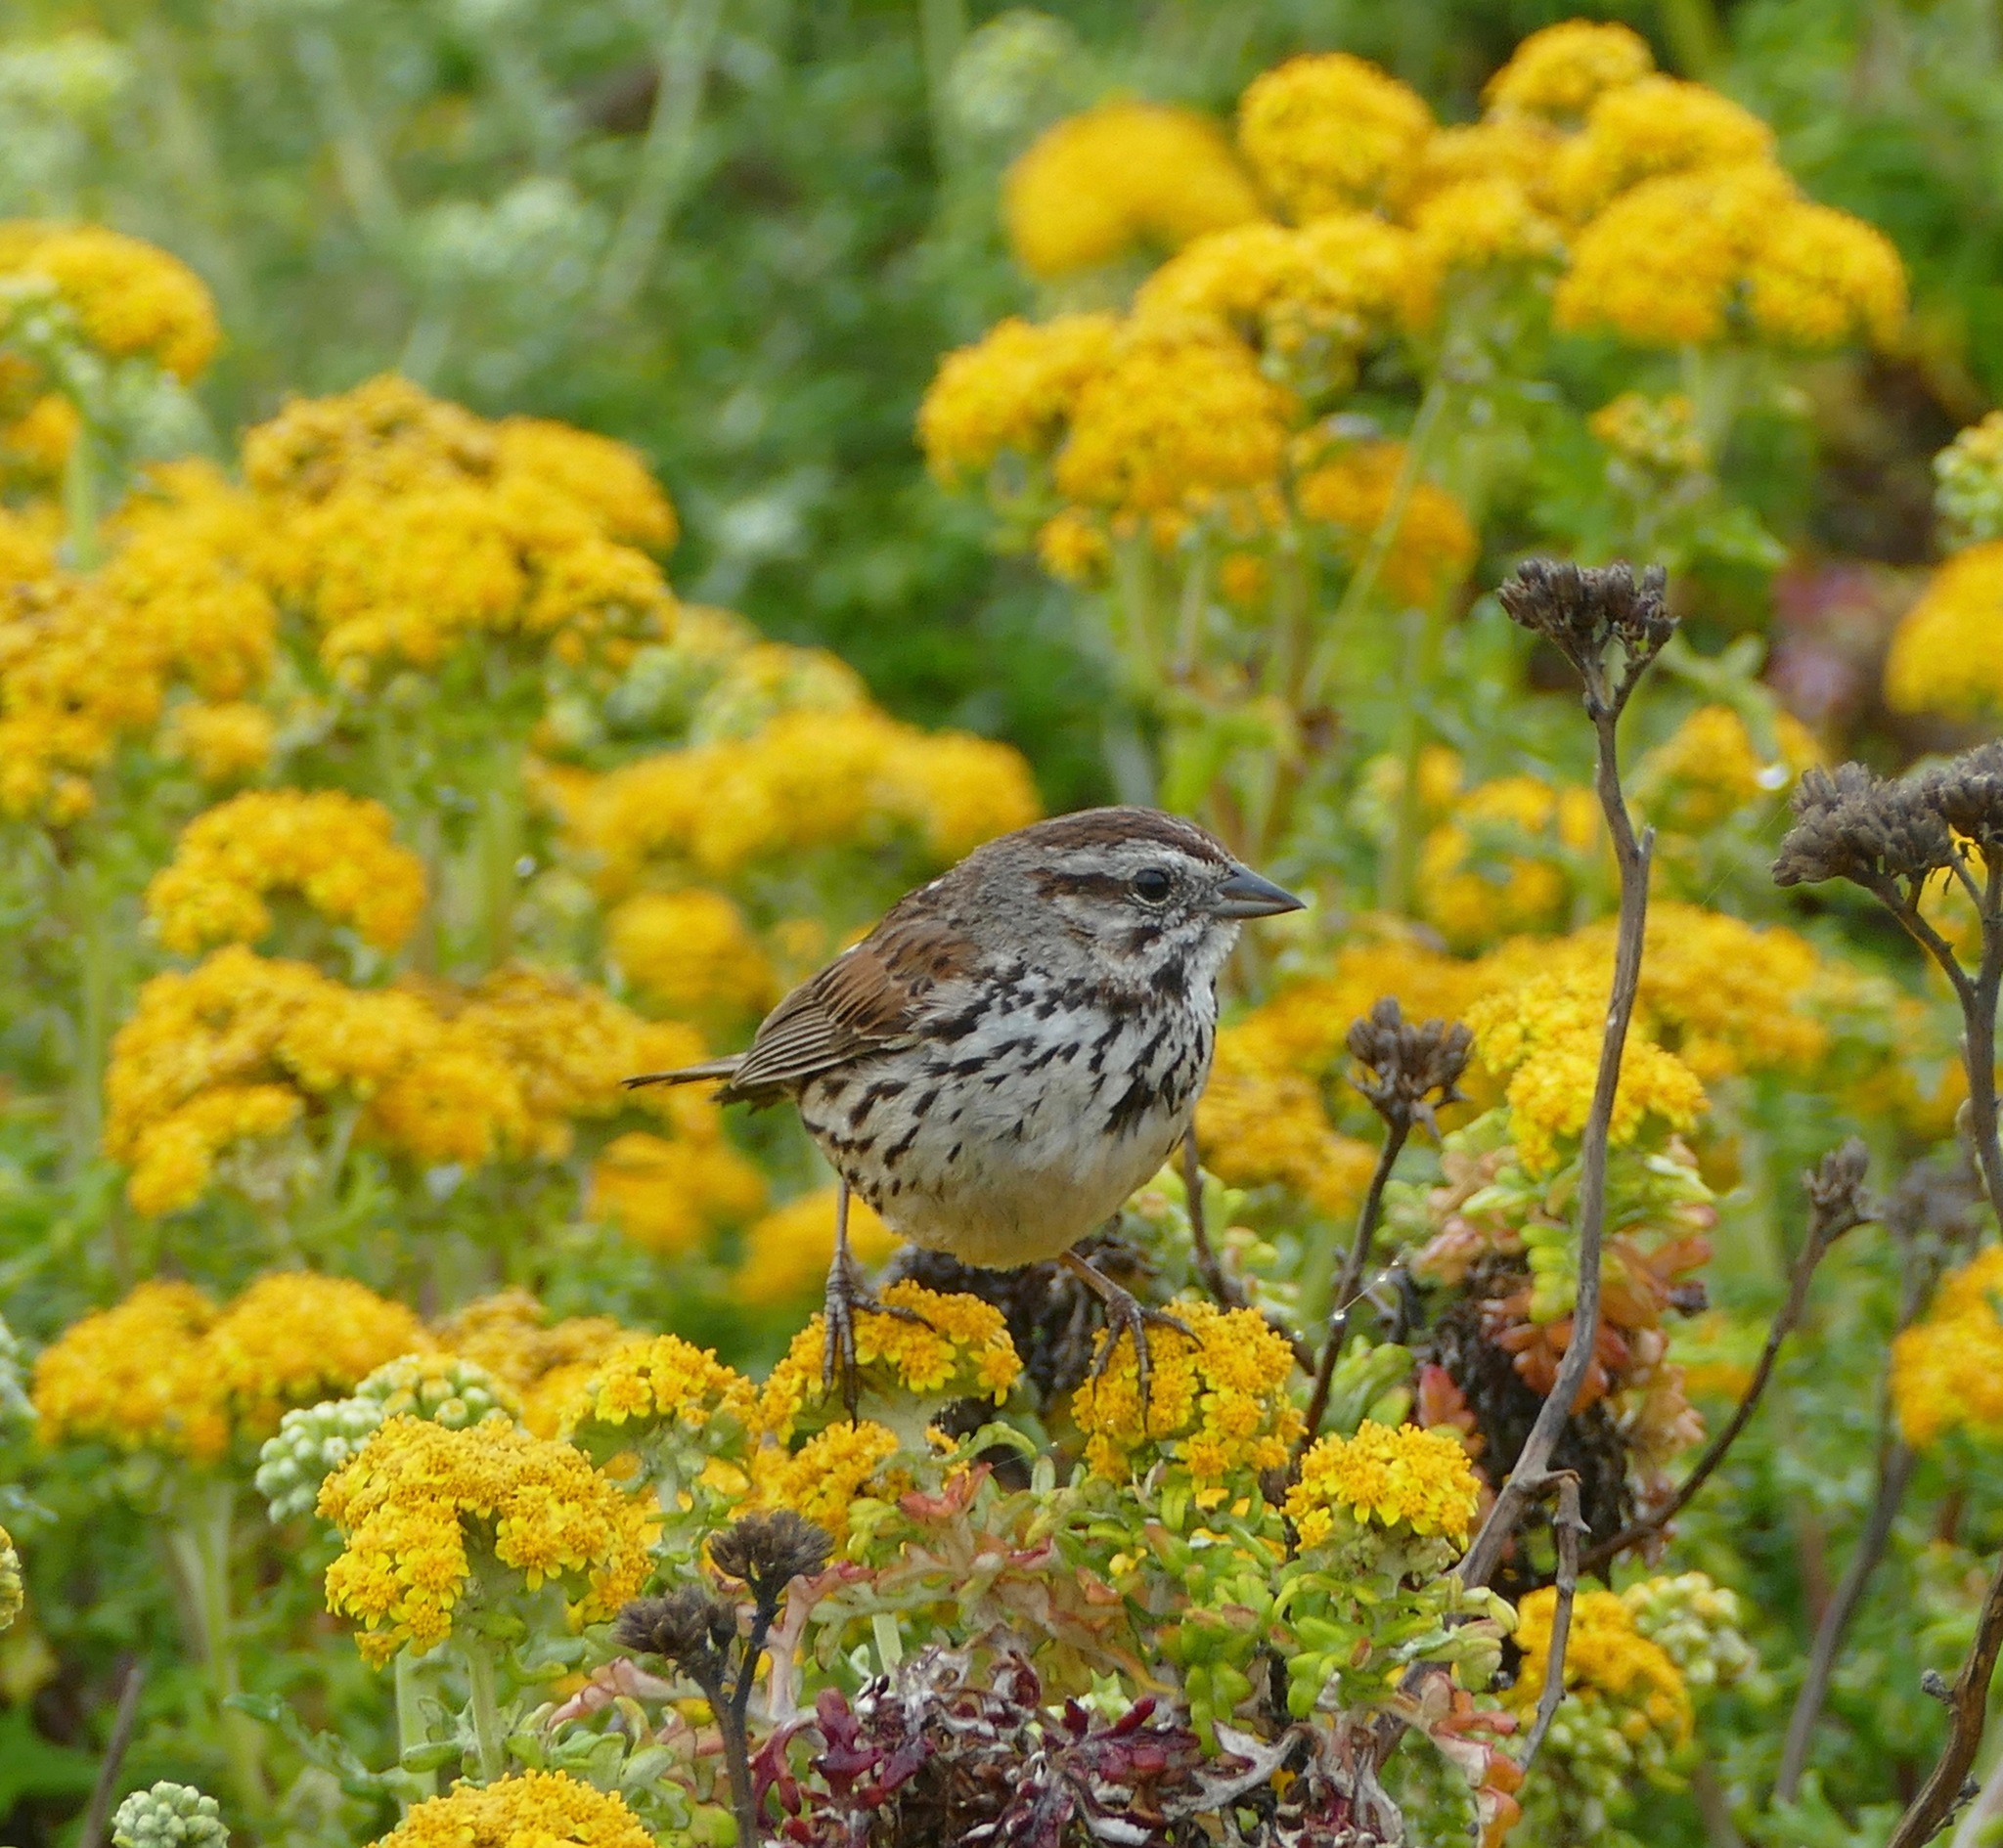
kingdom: Animalia
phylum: Chordata
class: Aves
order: Passeriformes
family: Passerellidae
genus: Melospiza
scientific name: Melospiza melodia
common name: Song sparrow
